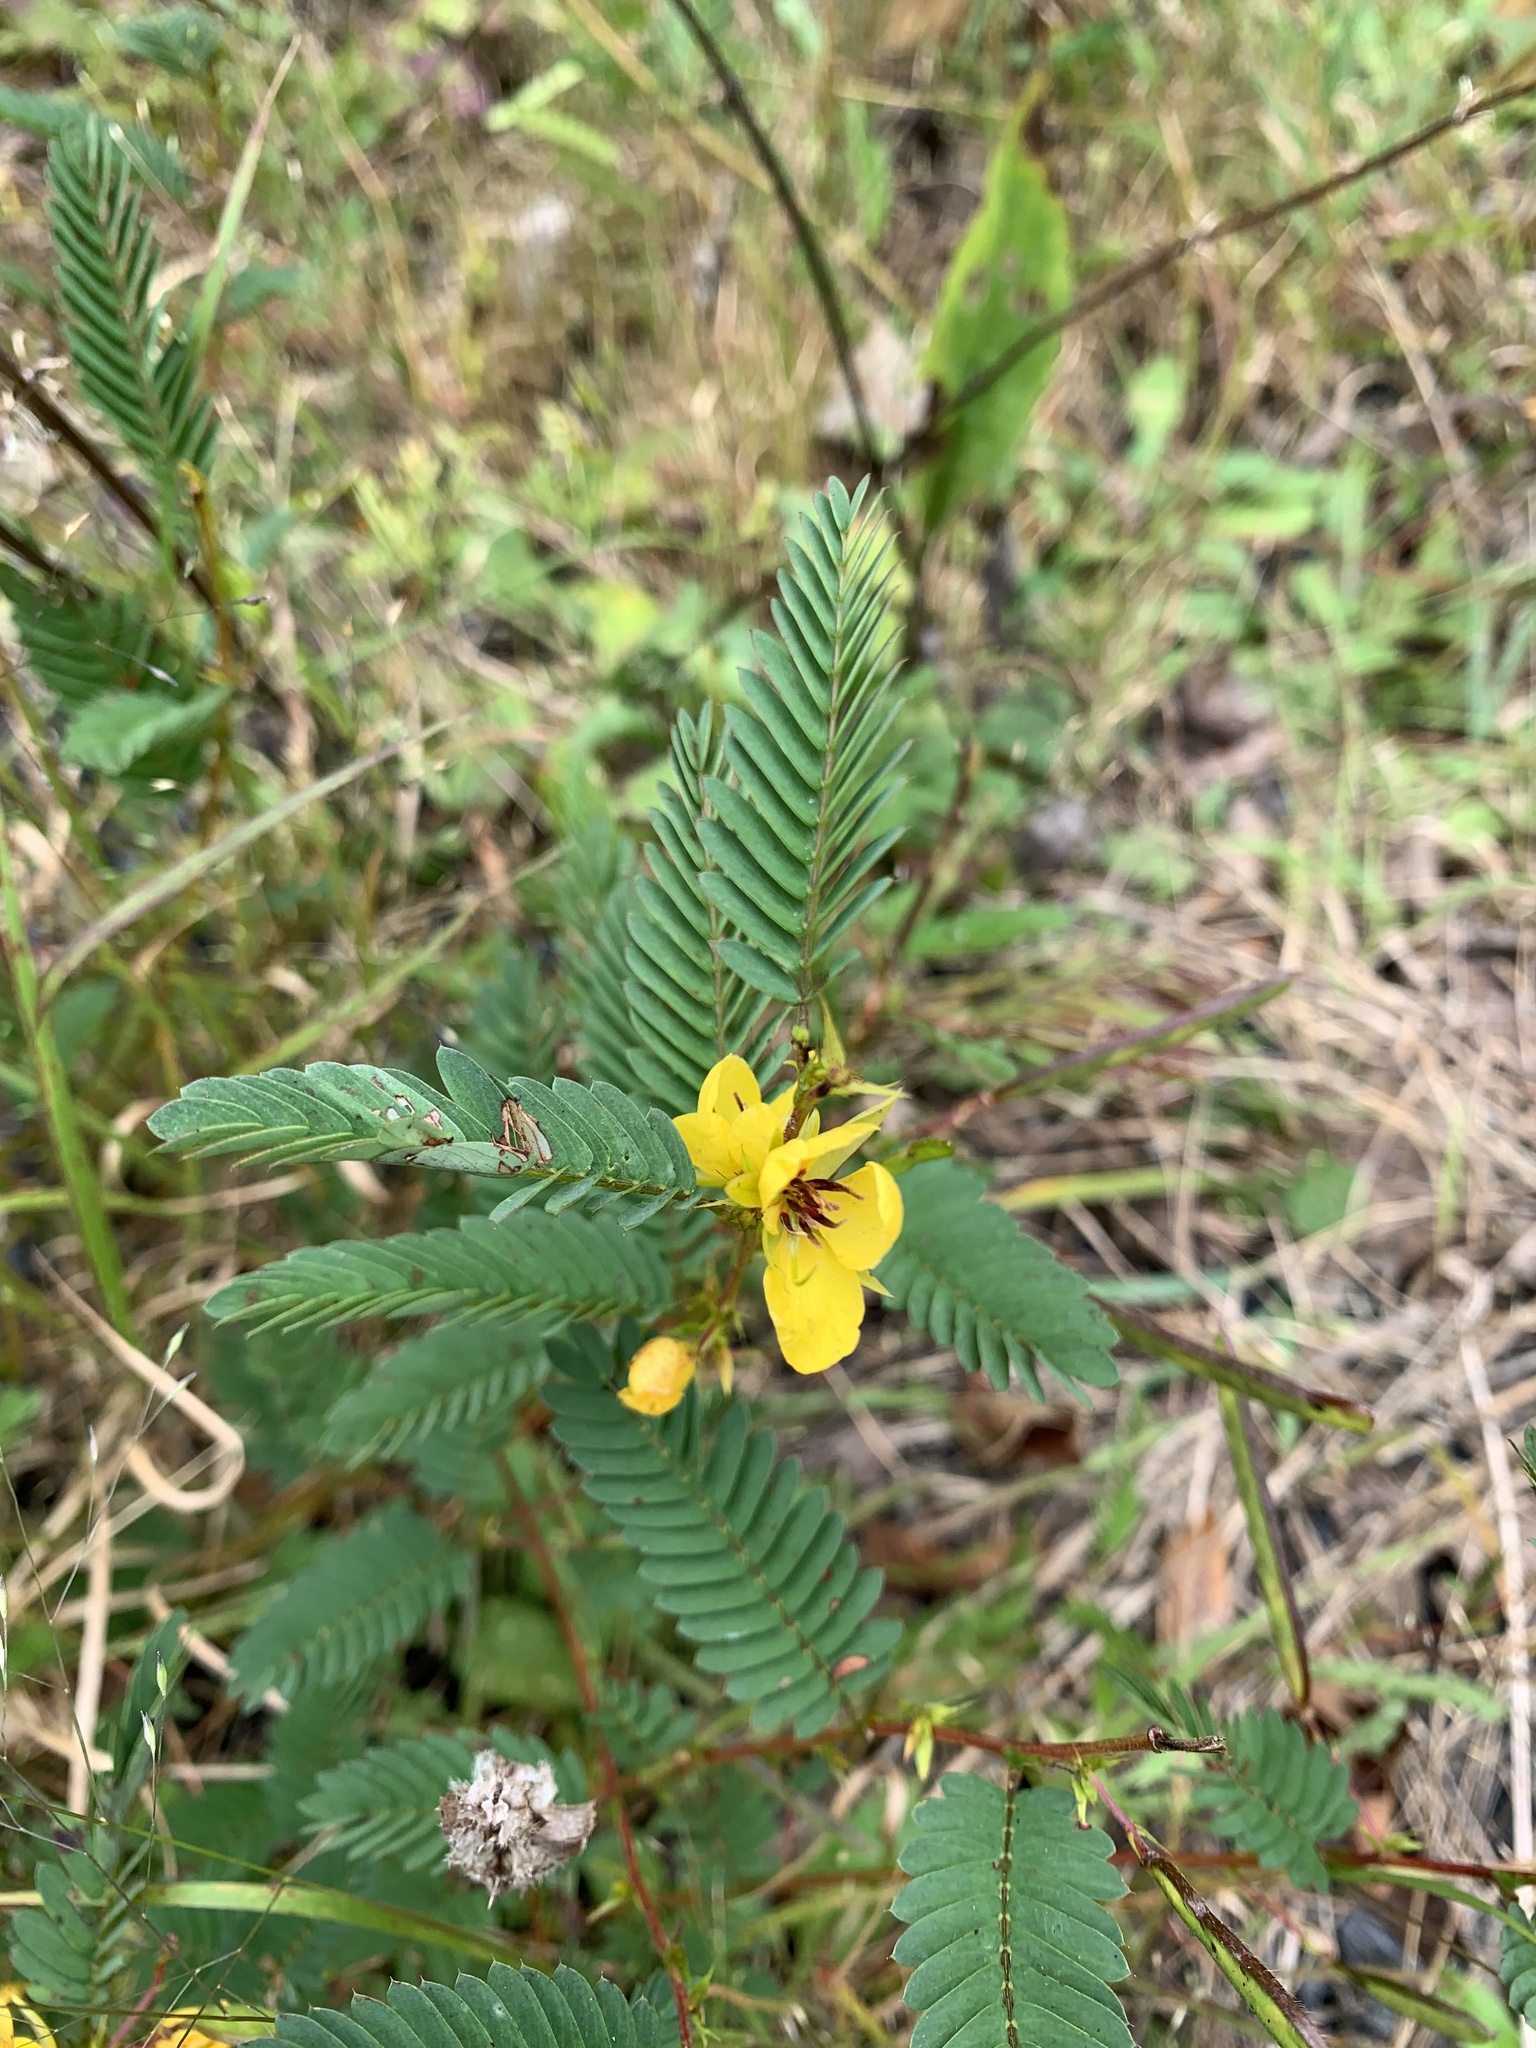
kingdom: Plantae
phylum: Tracheophyta
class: Magnoliopsida
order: Fabales
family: Fabaceae
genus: Chamaecrista
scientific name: Chamaecrista fasciculata
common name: Golden cassia
